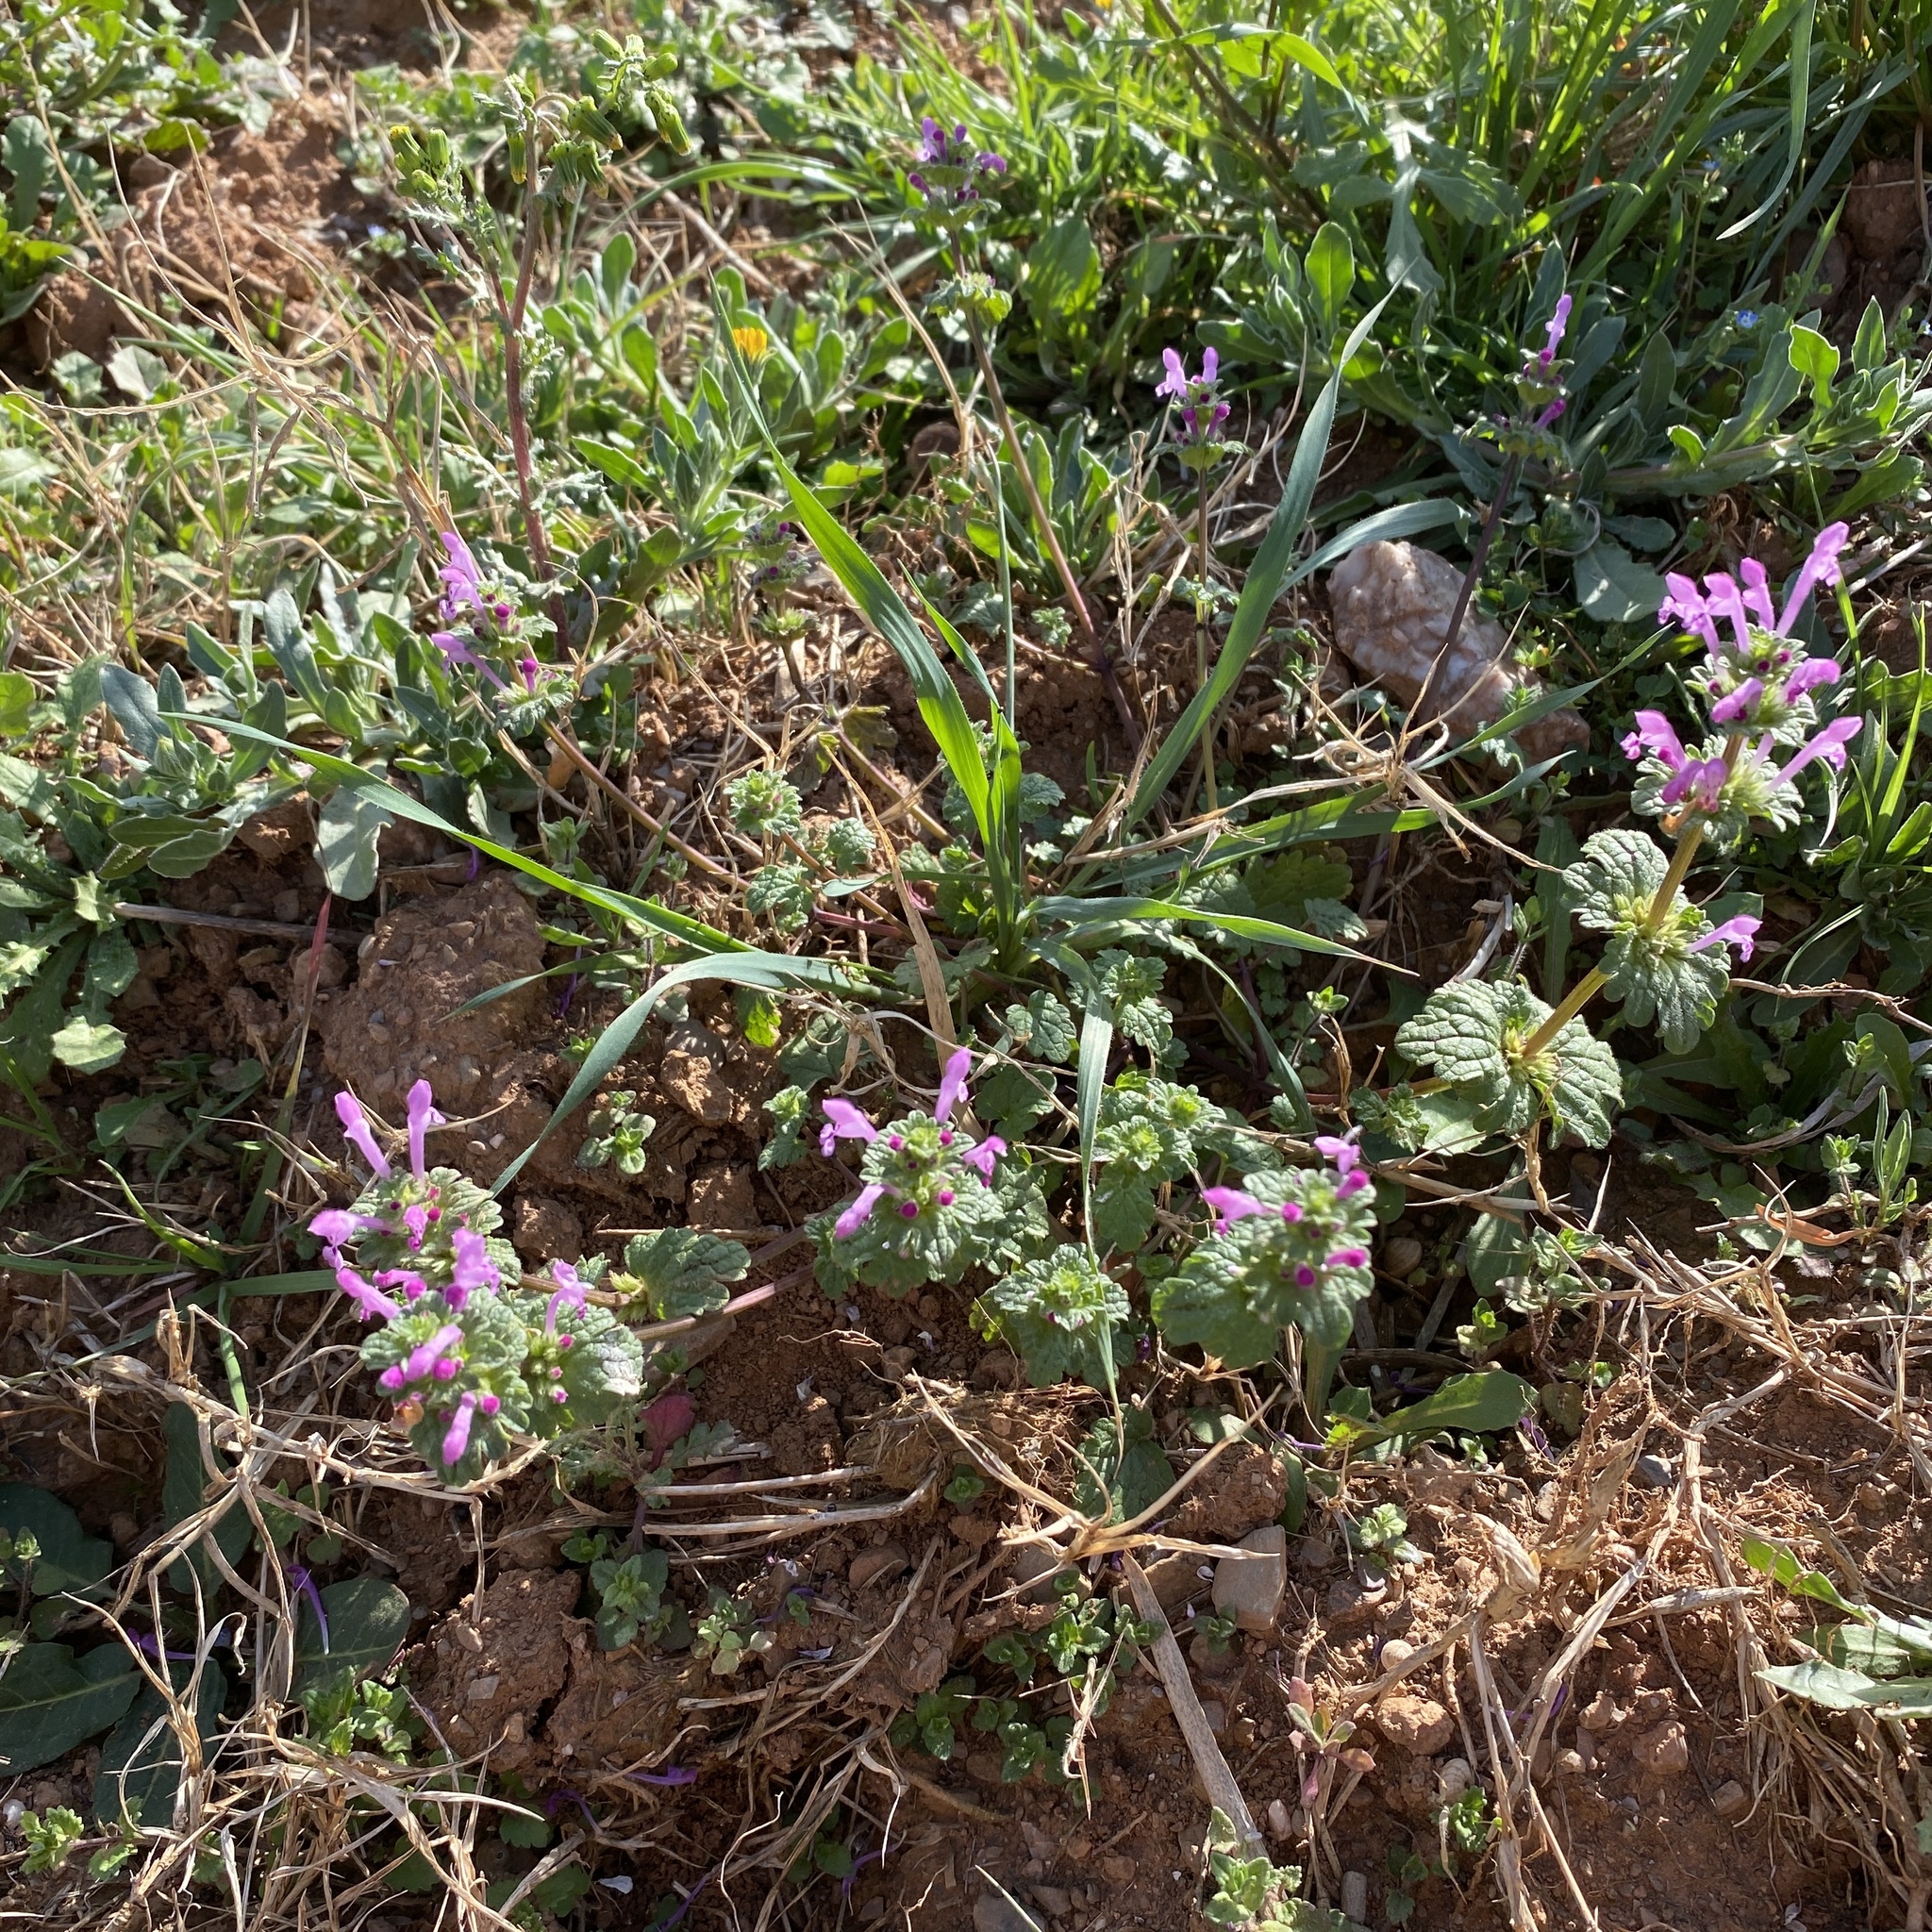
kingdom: Plantae
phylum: Tracheophyta
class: Magnoliopsida
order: Lamiales
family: Lamiaceae
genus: Lamium
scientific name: Lamium amplexicaule
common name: Henbit dead-nettle
